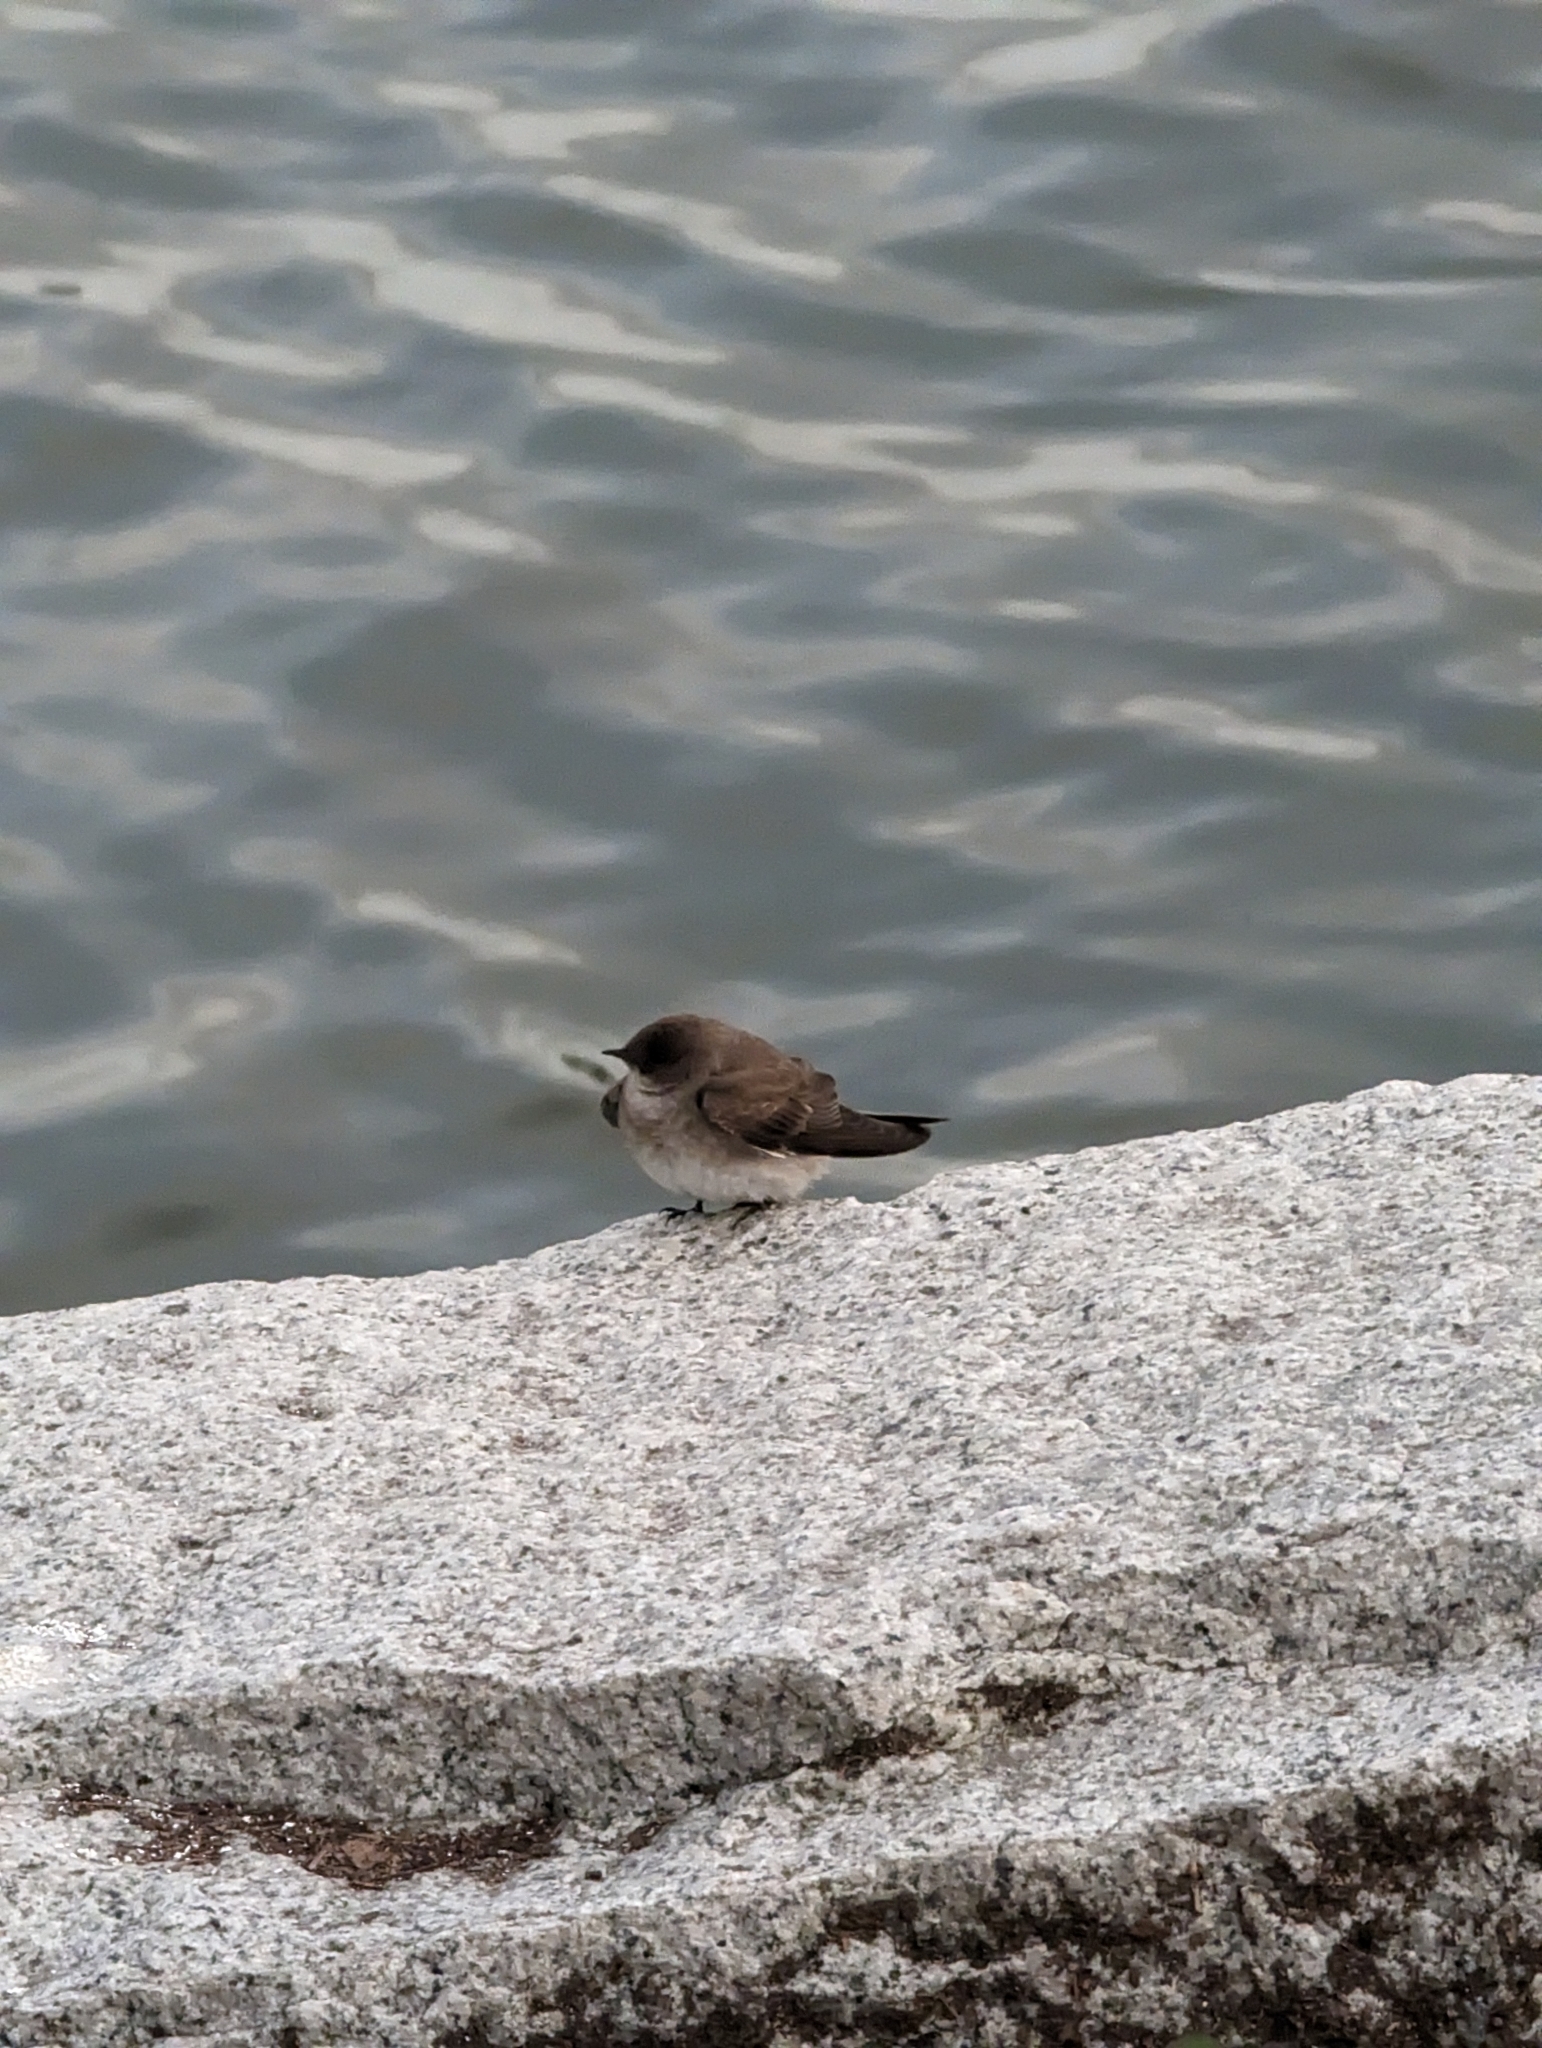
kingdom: Animalia
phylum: Chordata
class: Aves
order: Passeriformes
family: Hirundinidae
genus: Stelgidopteryx
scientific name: Stelgidopteryx serripennis
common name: Northern rough-winged swallow
